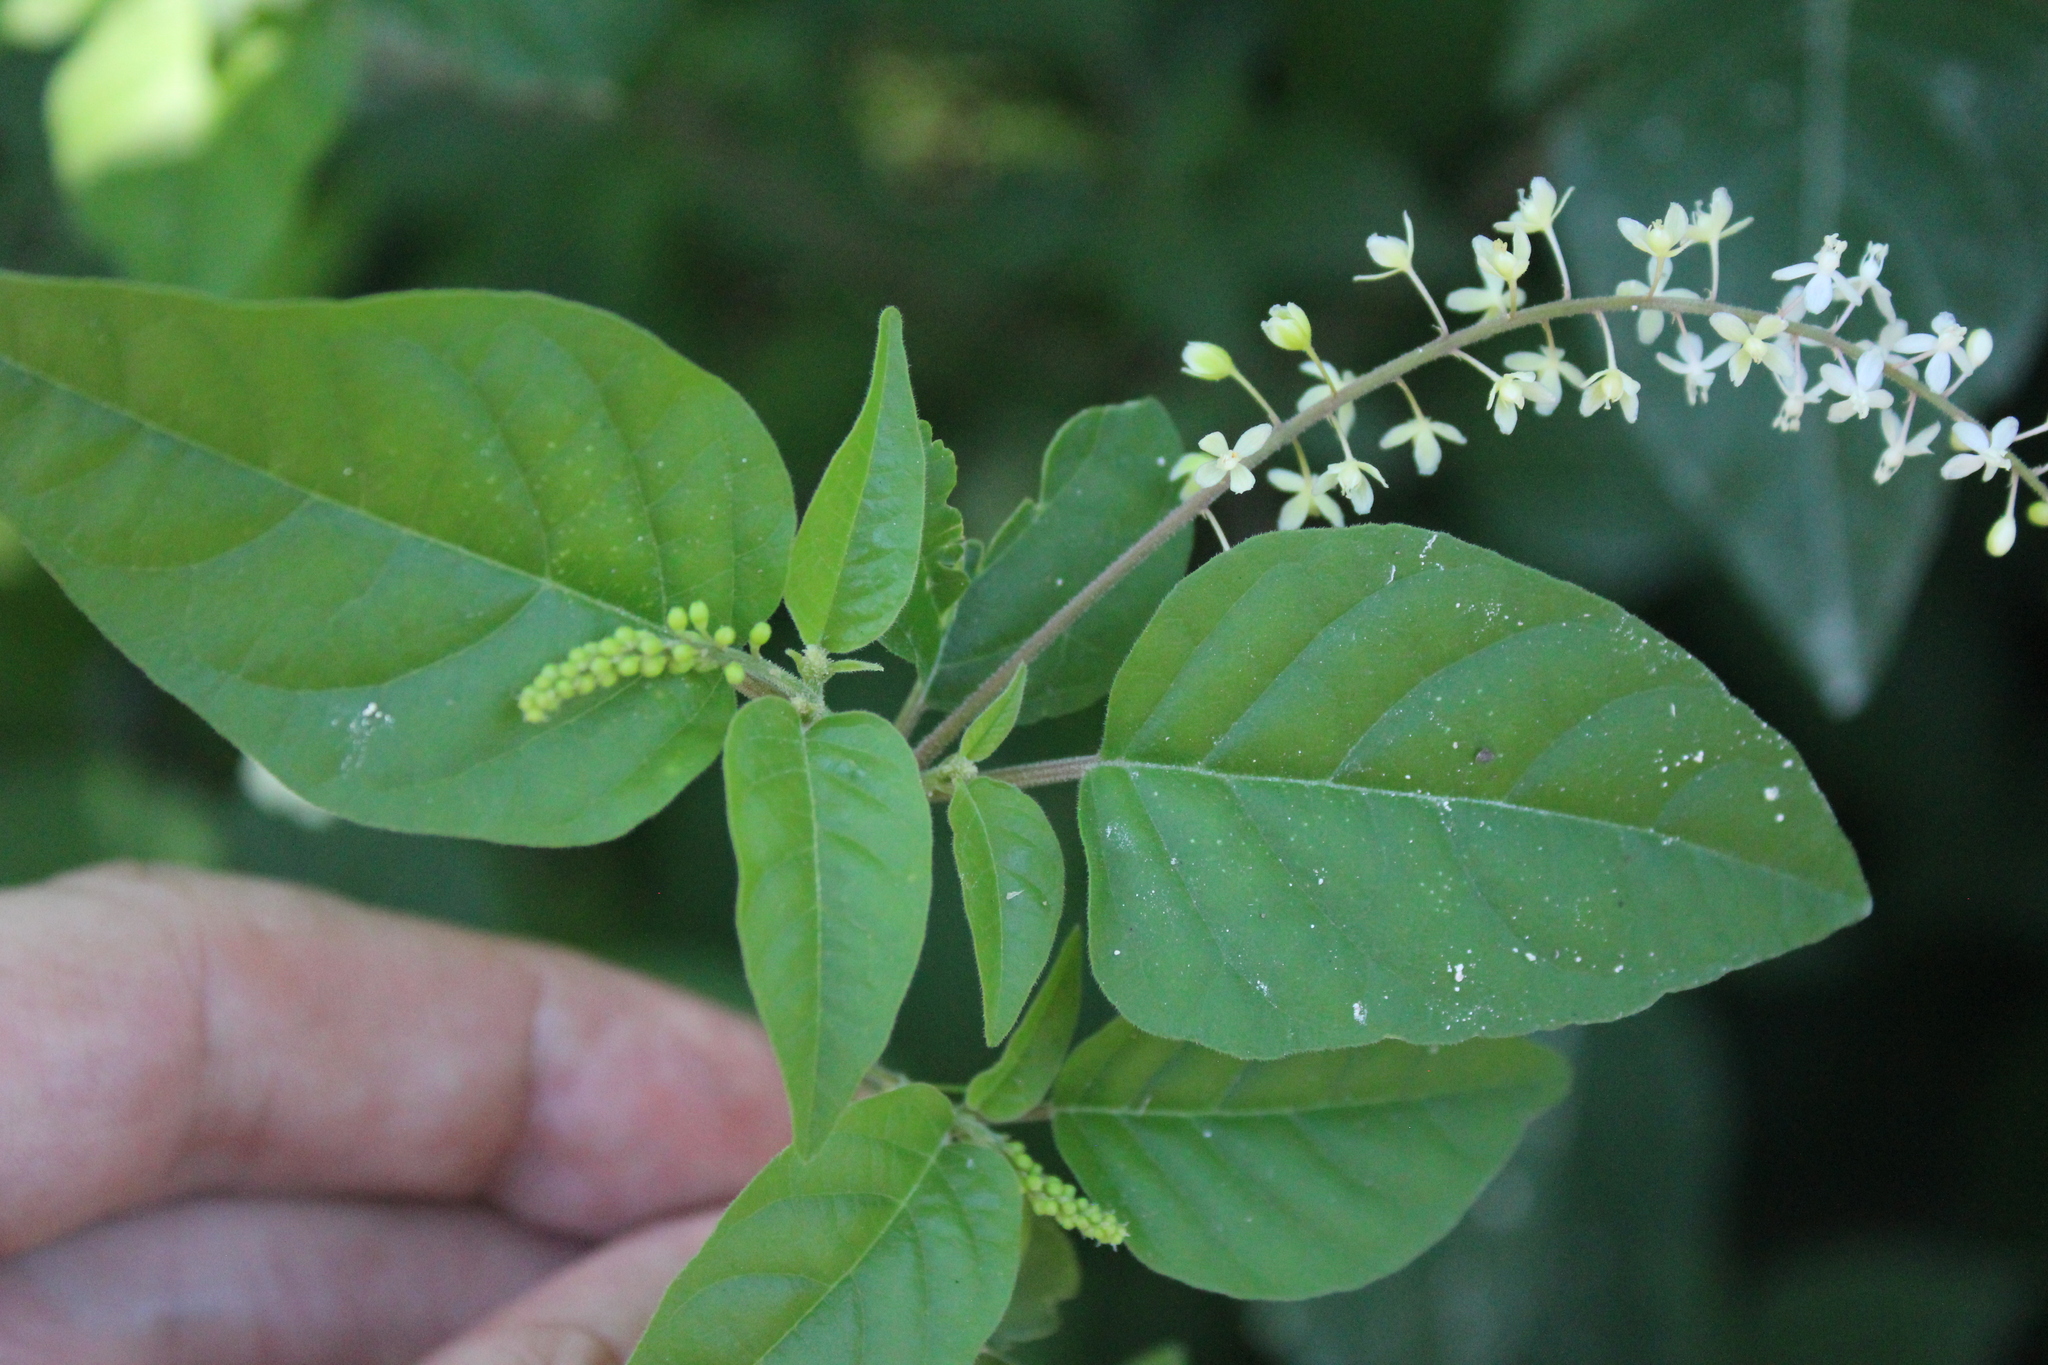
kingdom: Plantae
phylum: Tracheophyta
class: Magnoliopsida
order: Caryophyllales
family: Phytolaccaceae
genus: Rivina
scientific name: Rivina humilis
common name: Rougeplant
